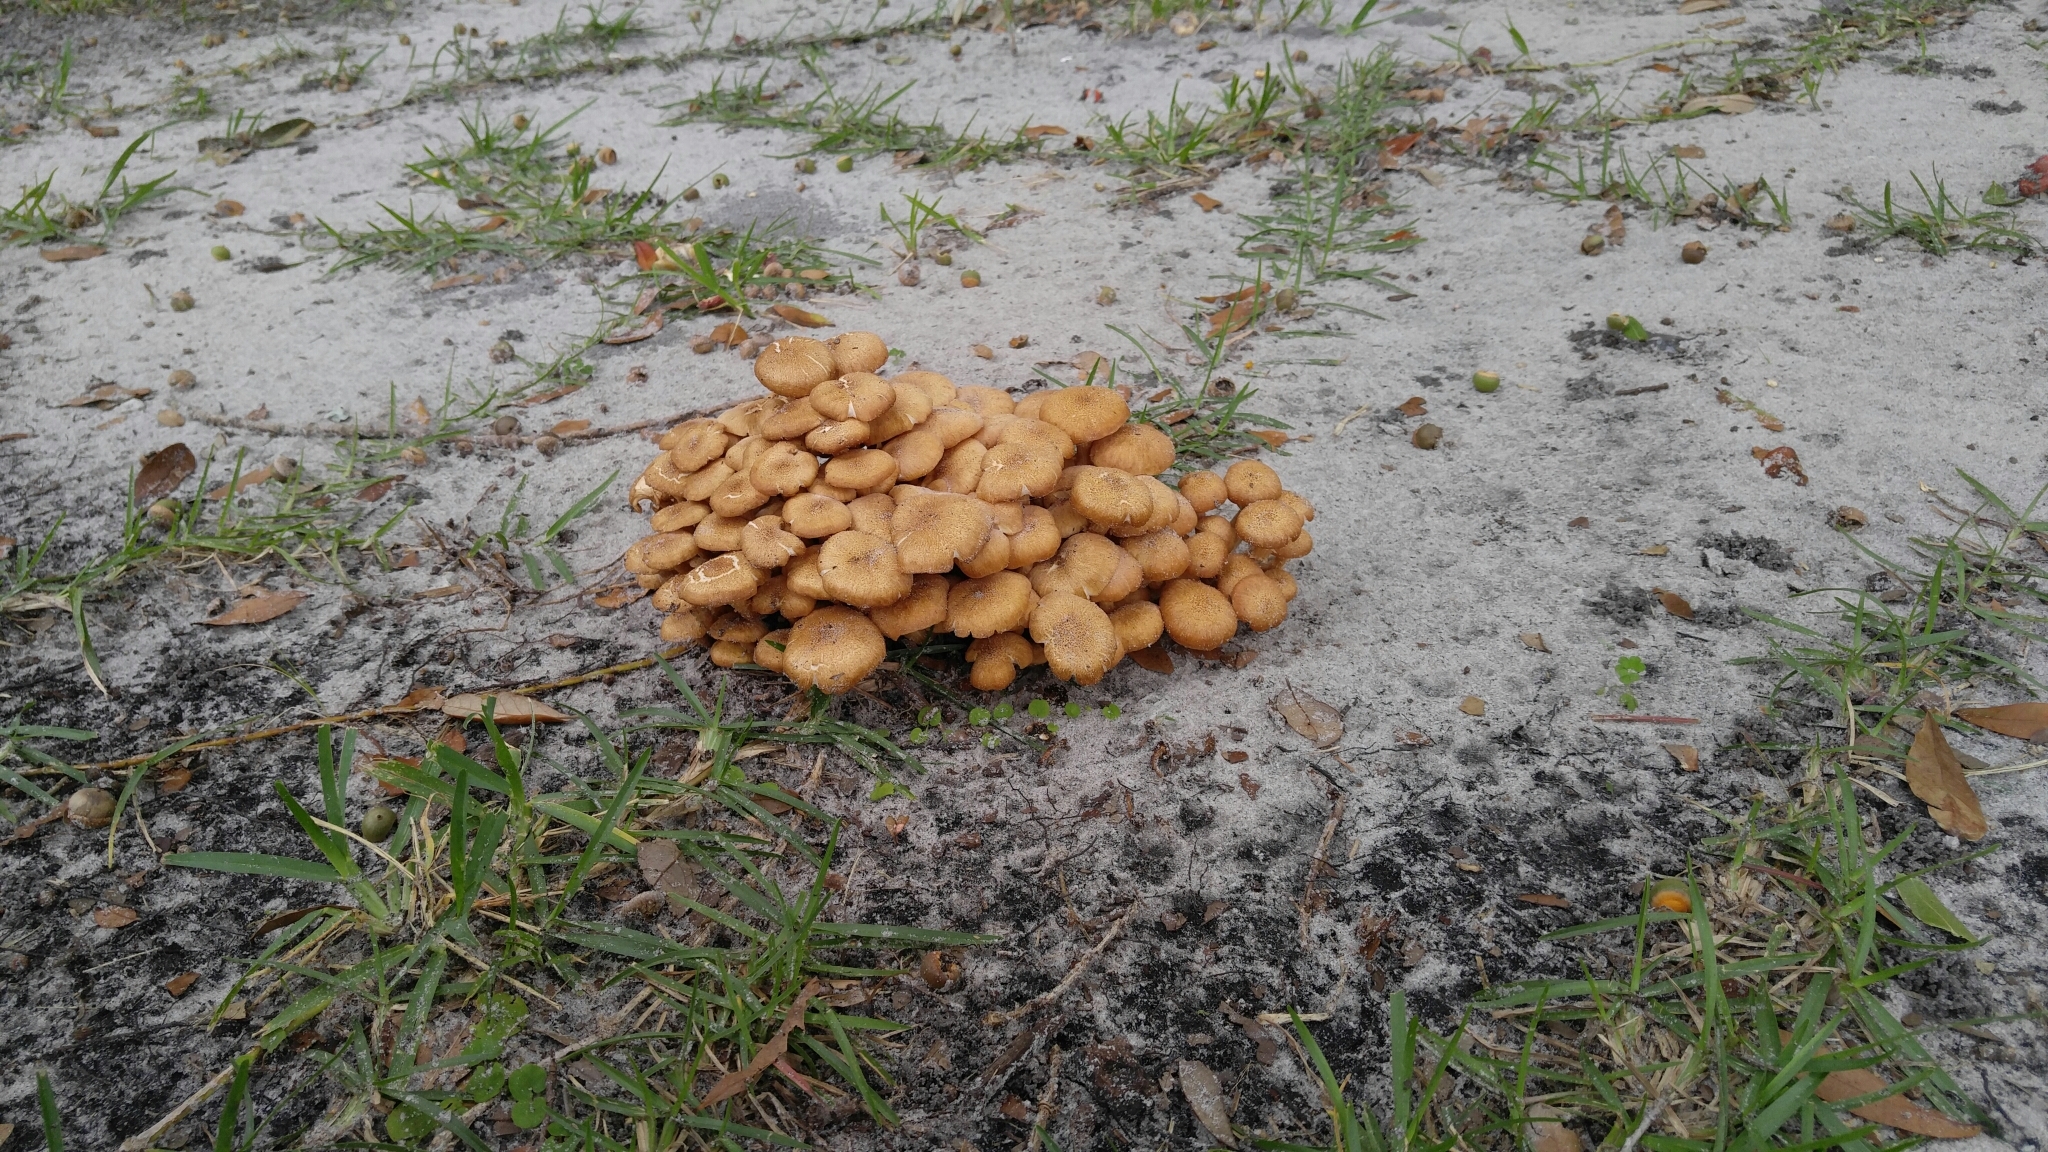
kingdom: Fungi
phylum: Basidiomycota
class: Agaricomycetes
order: Agaricales
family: Physalacriaceae
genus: Desarmillaria
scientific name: Desarmillaria caespitosa
